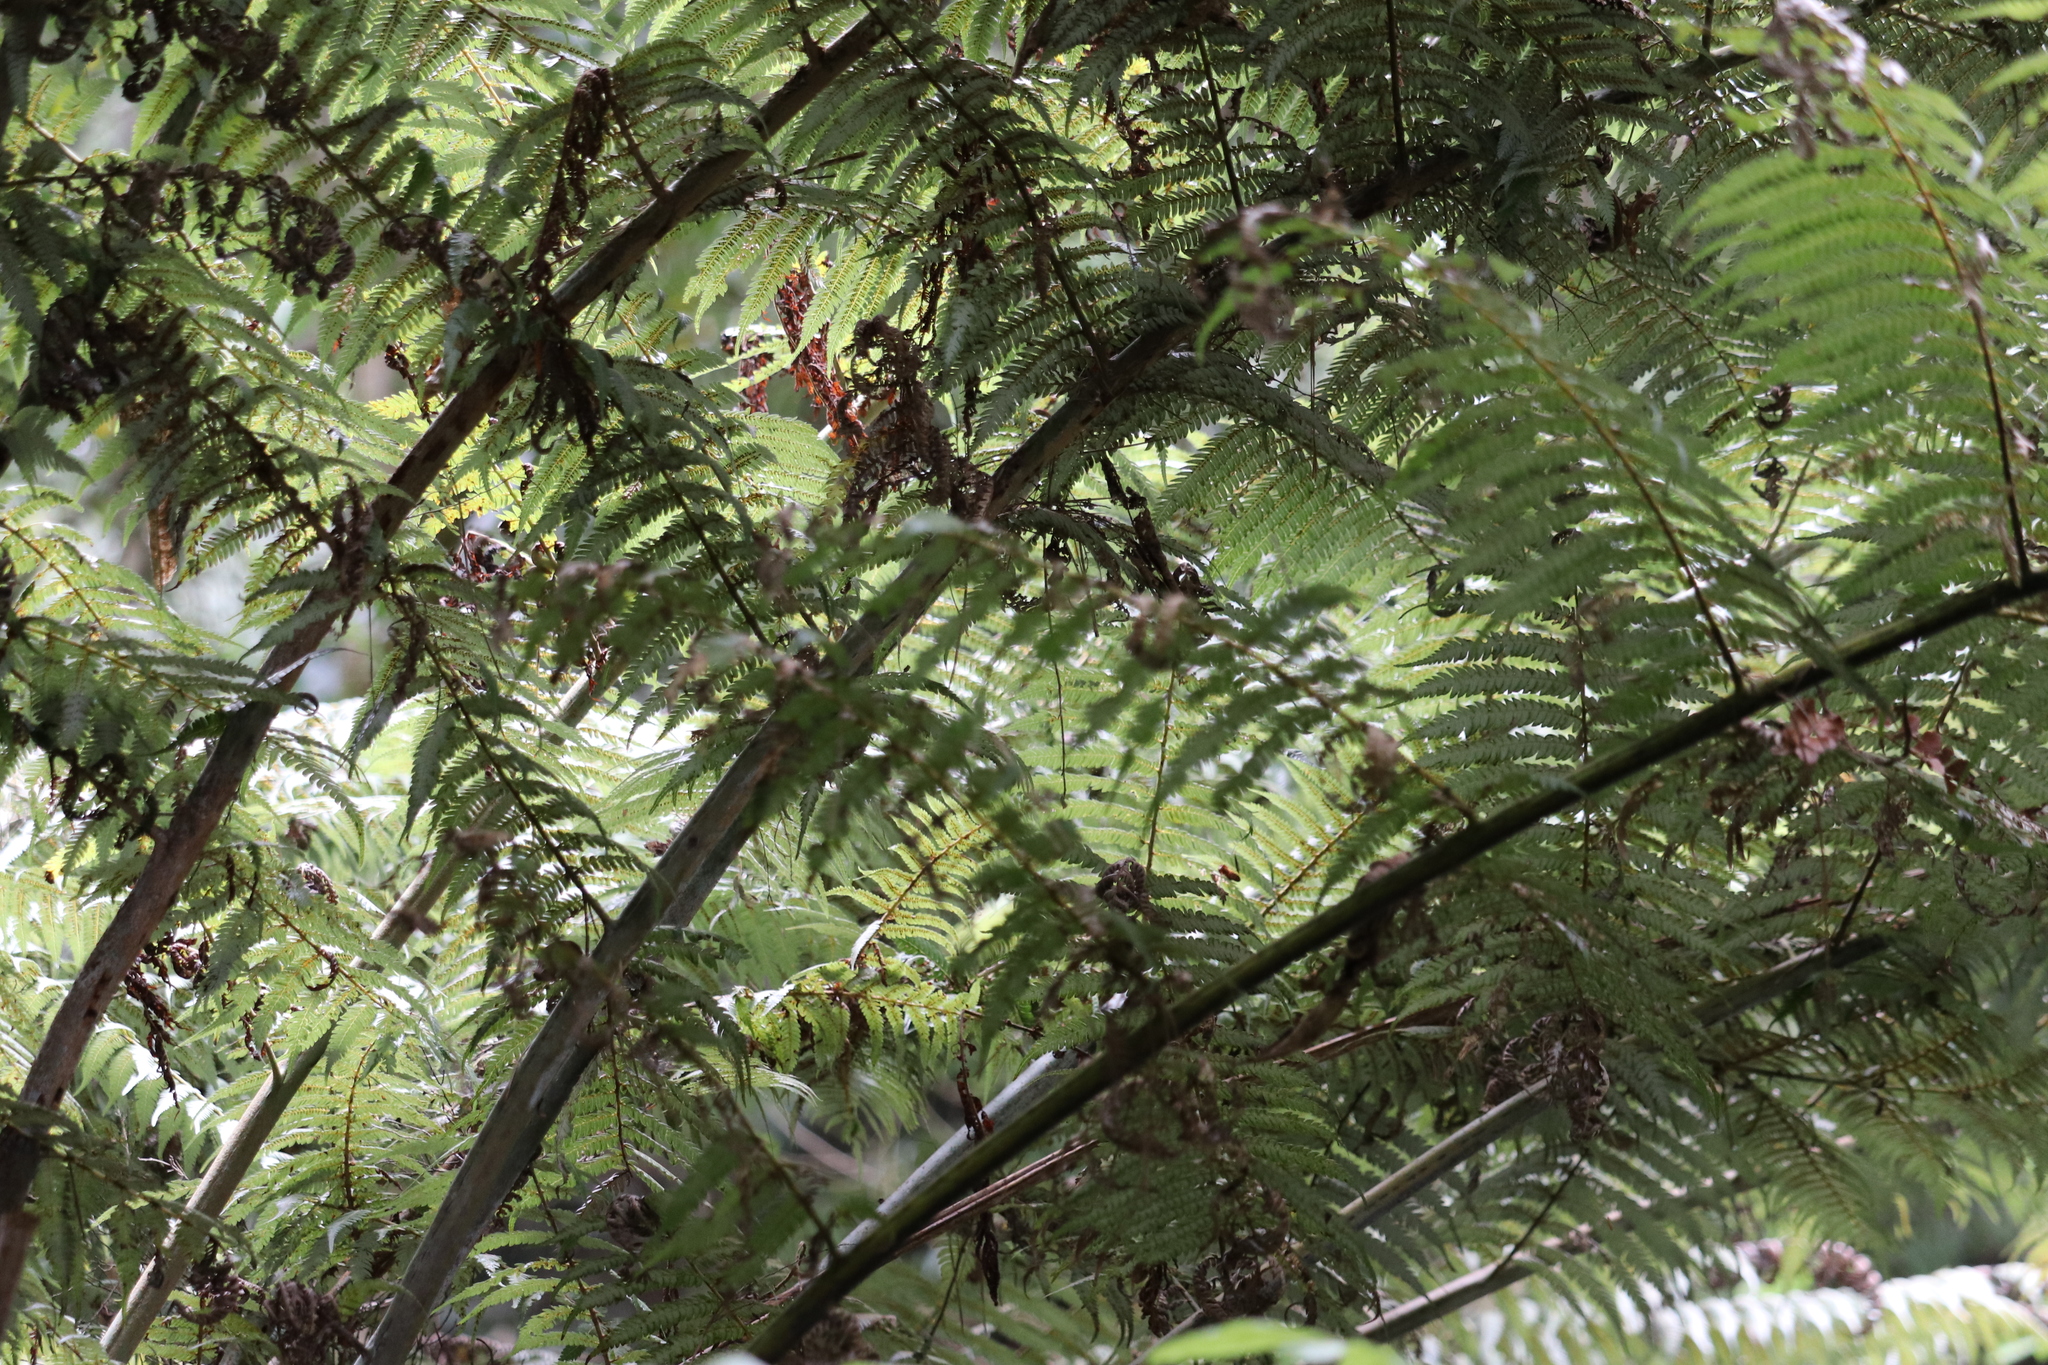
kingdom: Plantae
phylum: Tracheophyta
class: Polypodiopsida
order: Cyatheales
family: Cyatheaceae
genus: Alsophila
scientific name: Alsophila dealbata
